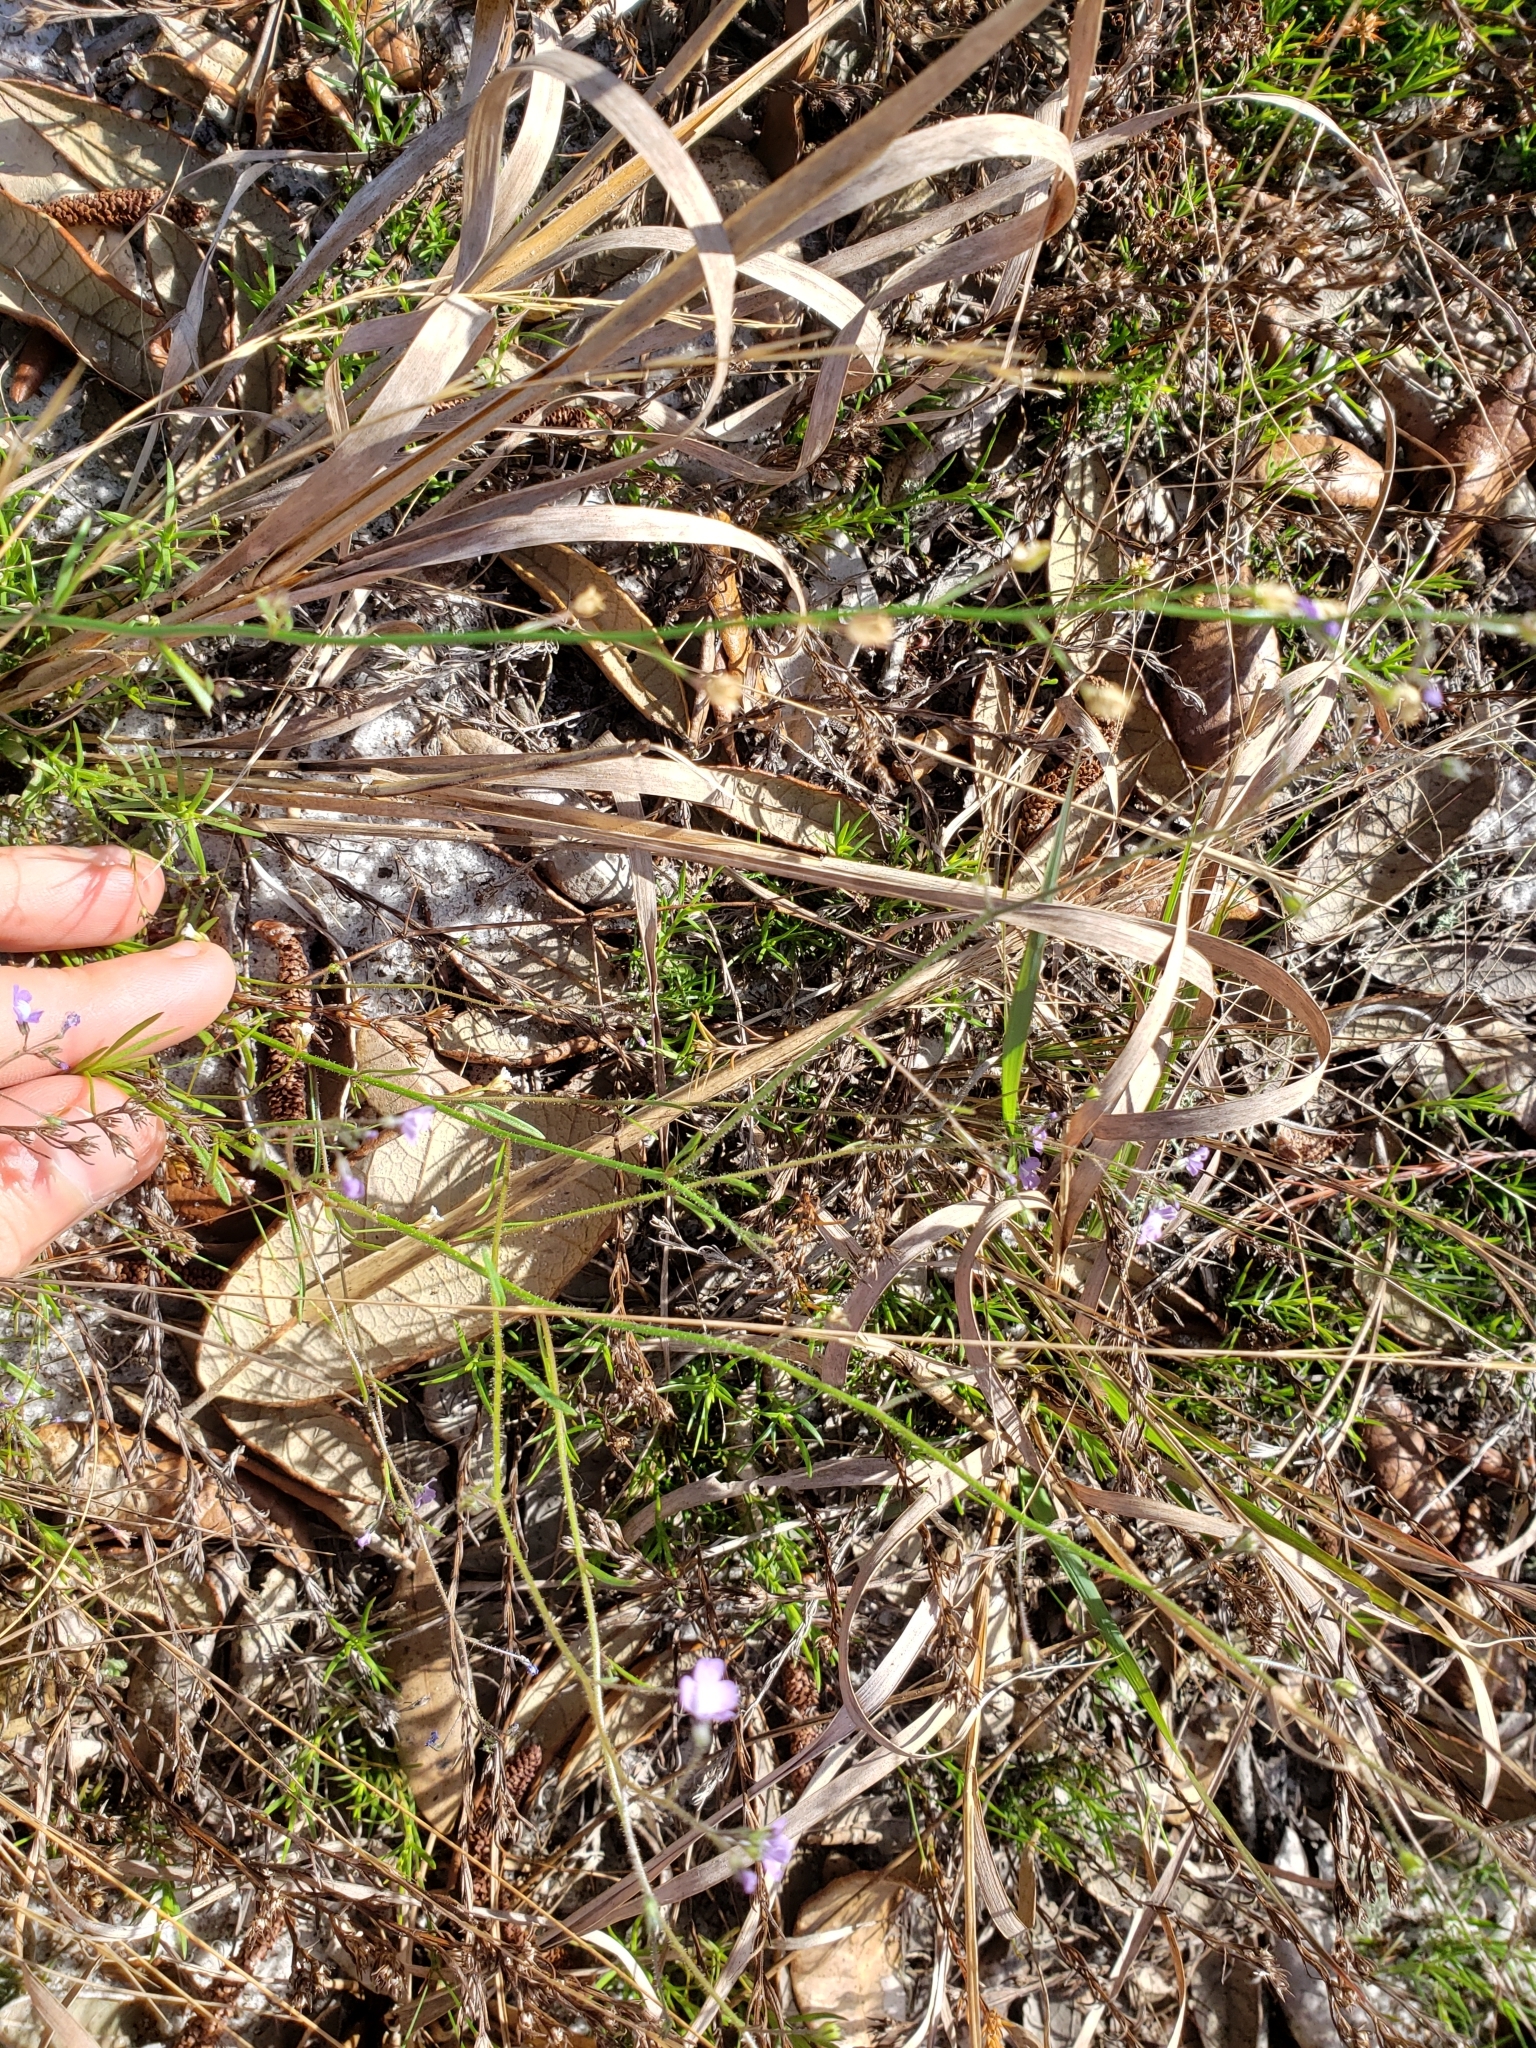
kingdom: Plantae
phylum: Tracheophyta
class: Magnoliopsida
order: Lamiales
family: Plantaginaceae
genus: Nuttallanthus
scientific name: Nuttallanthus floridanus
